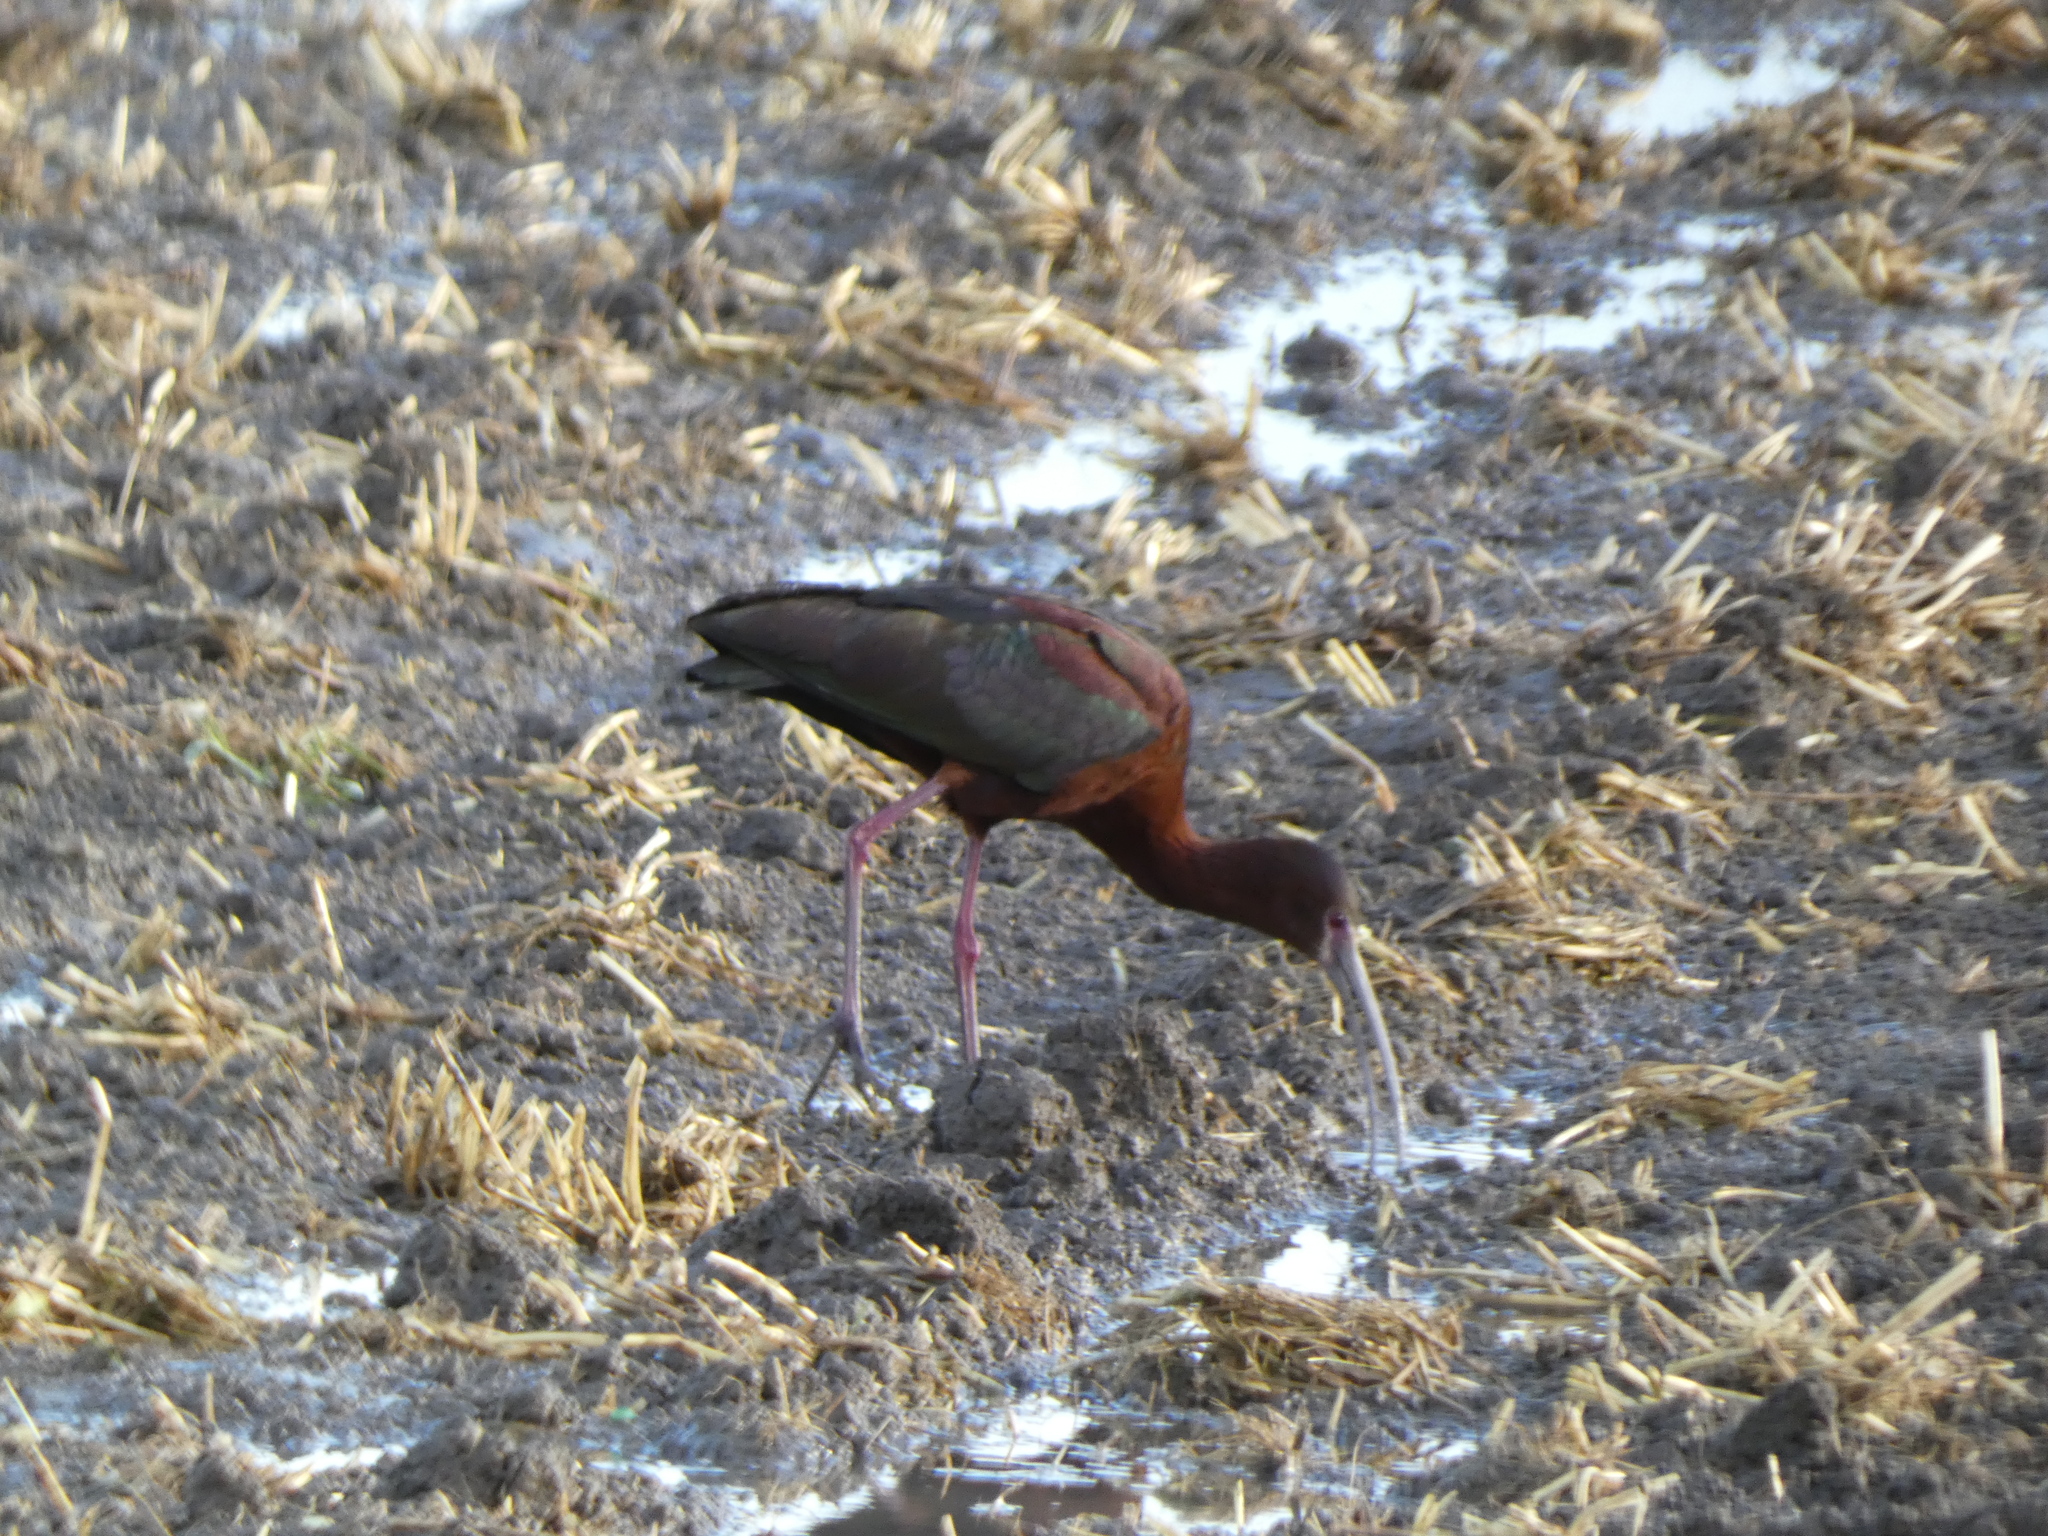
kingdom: Animalia
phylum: Chordata
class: Aves
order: Pelecaniformes
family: Threskiornithidae
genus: Plegadis
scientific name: Plegadis chihi
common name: White-faced ibis
